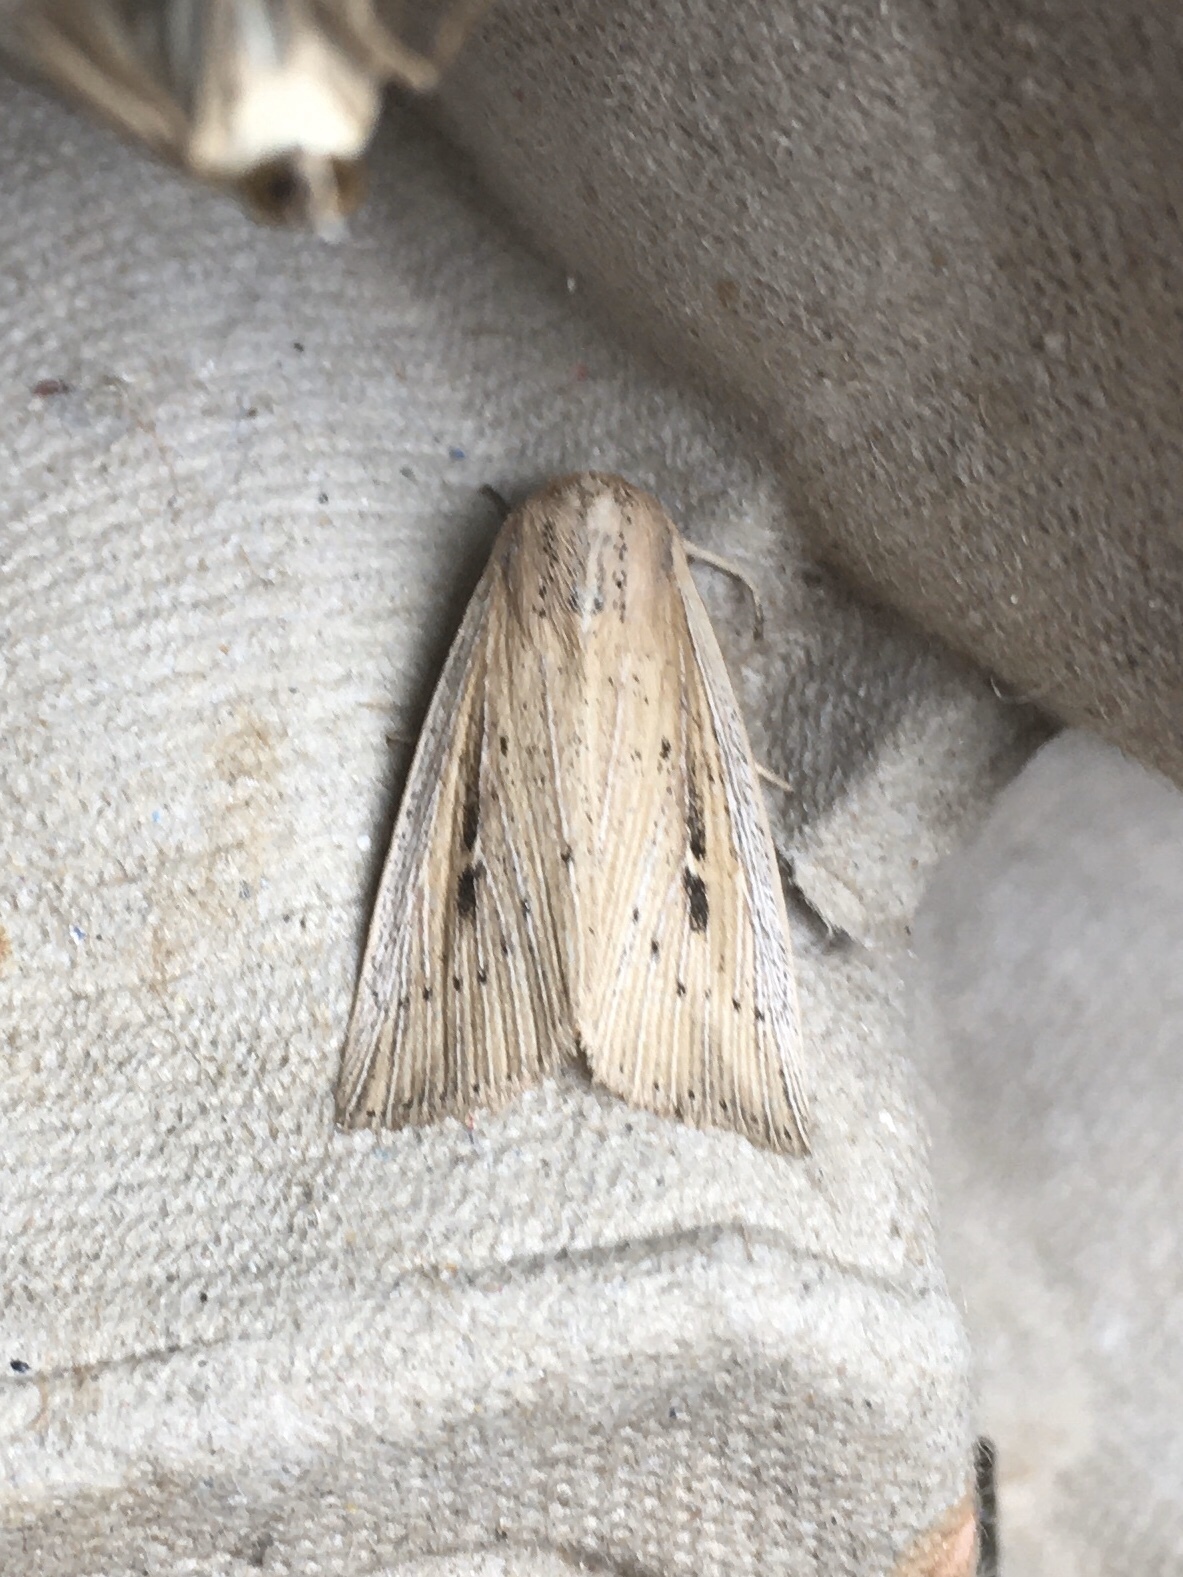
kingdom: Animalia
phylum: Arthropoda
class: Insecta
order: Lepidoptera
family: Noctuidae
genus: Leucania
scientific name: Leucania linita
